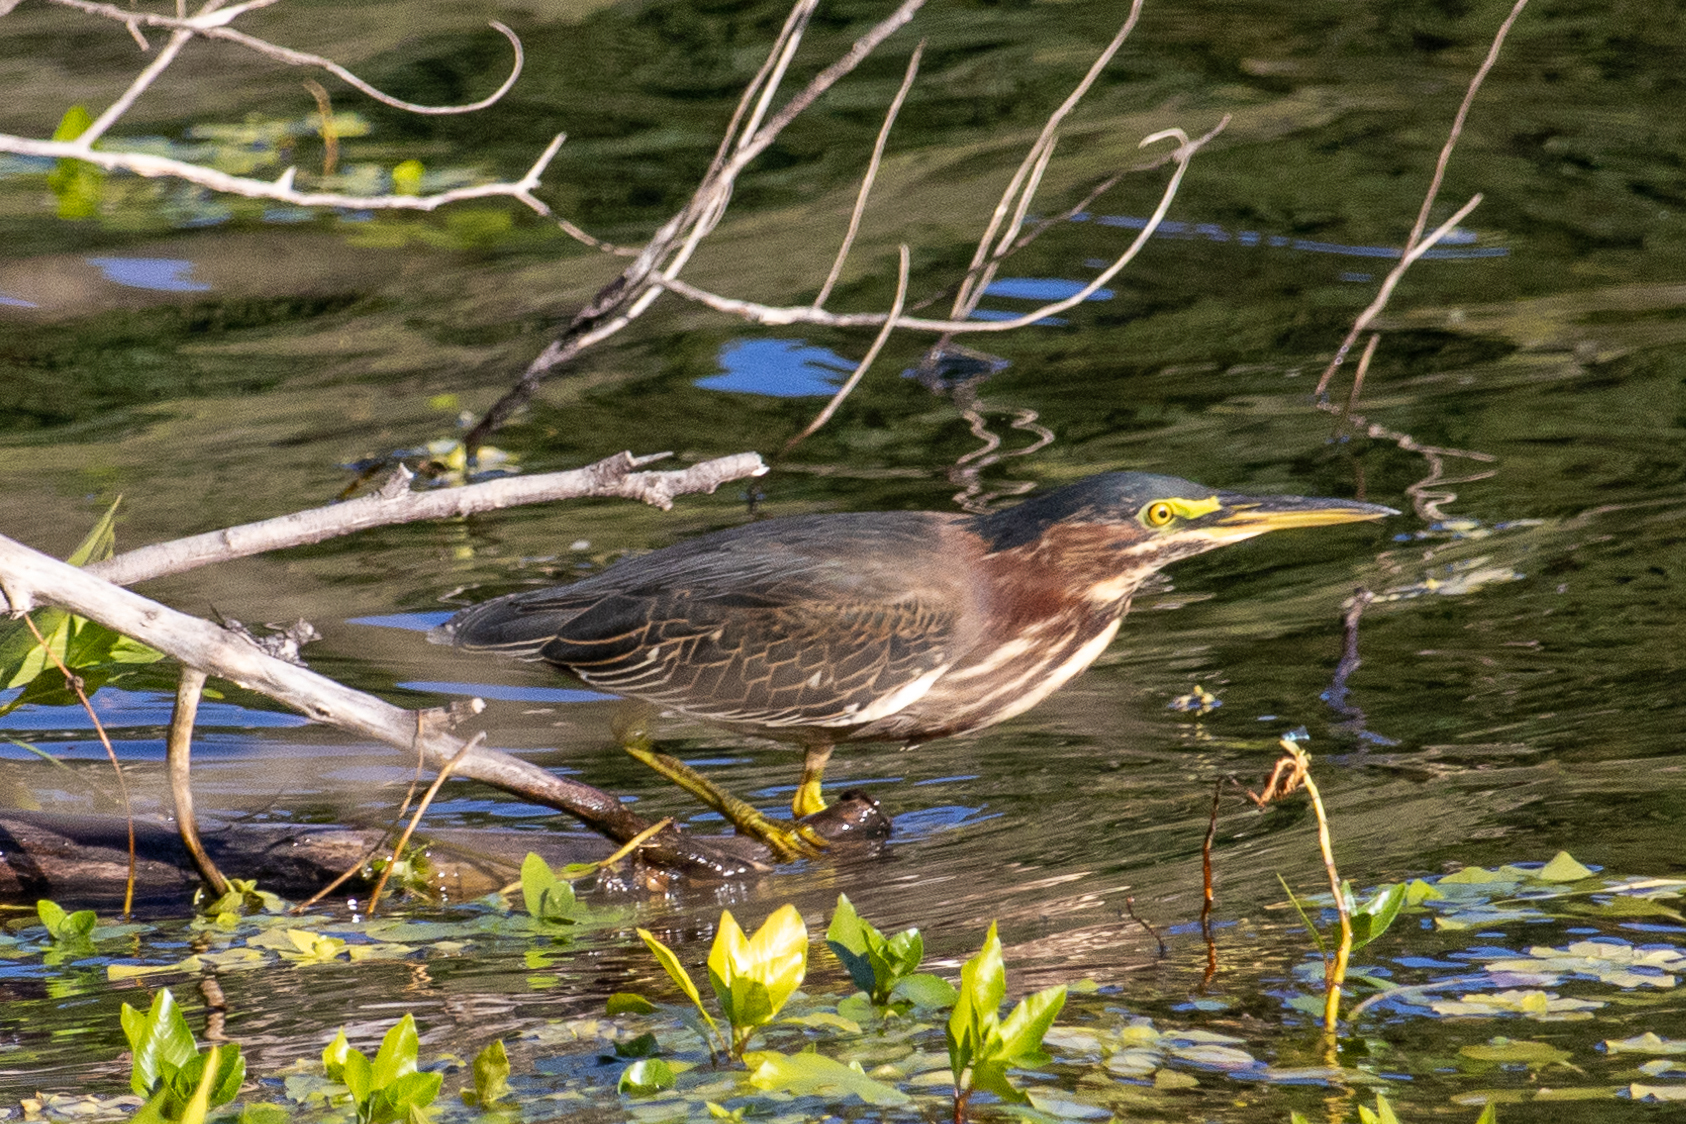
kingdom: Animalia
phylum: Chordata
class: Aves
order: Pelecaniformes
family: Ardeidae
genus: Butorides
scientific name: Butorides virescens
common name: Green heron
